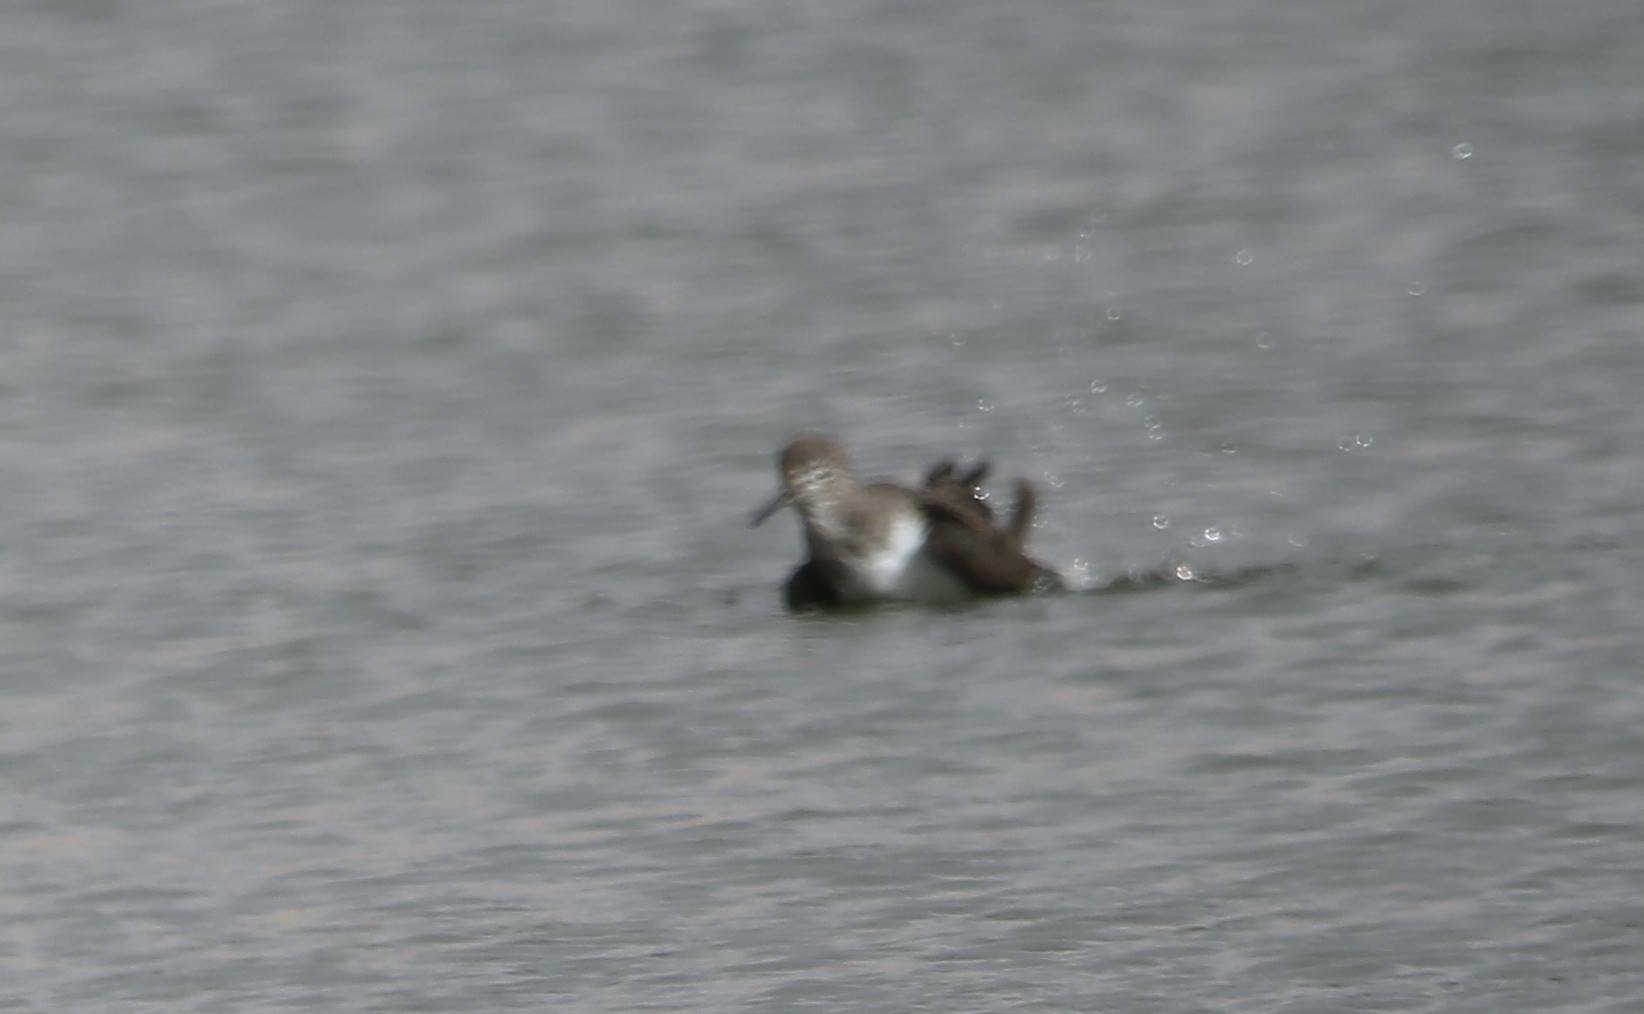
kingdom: Animalia
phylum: Chordata
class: Aves
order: Charadriiformes
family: Scolopacidae
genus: Actitis
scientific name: Actitis hypoleucos
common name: Common sandpiper
